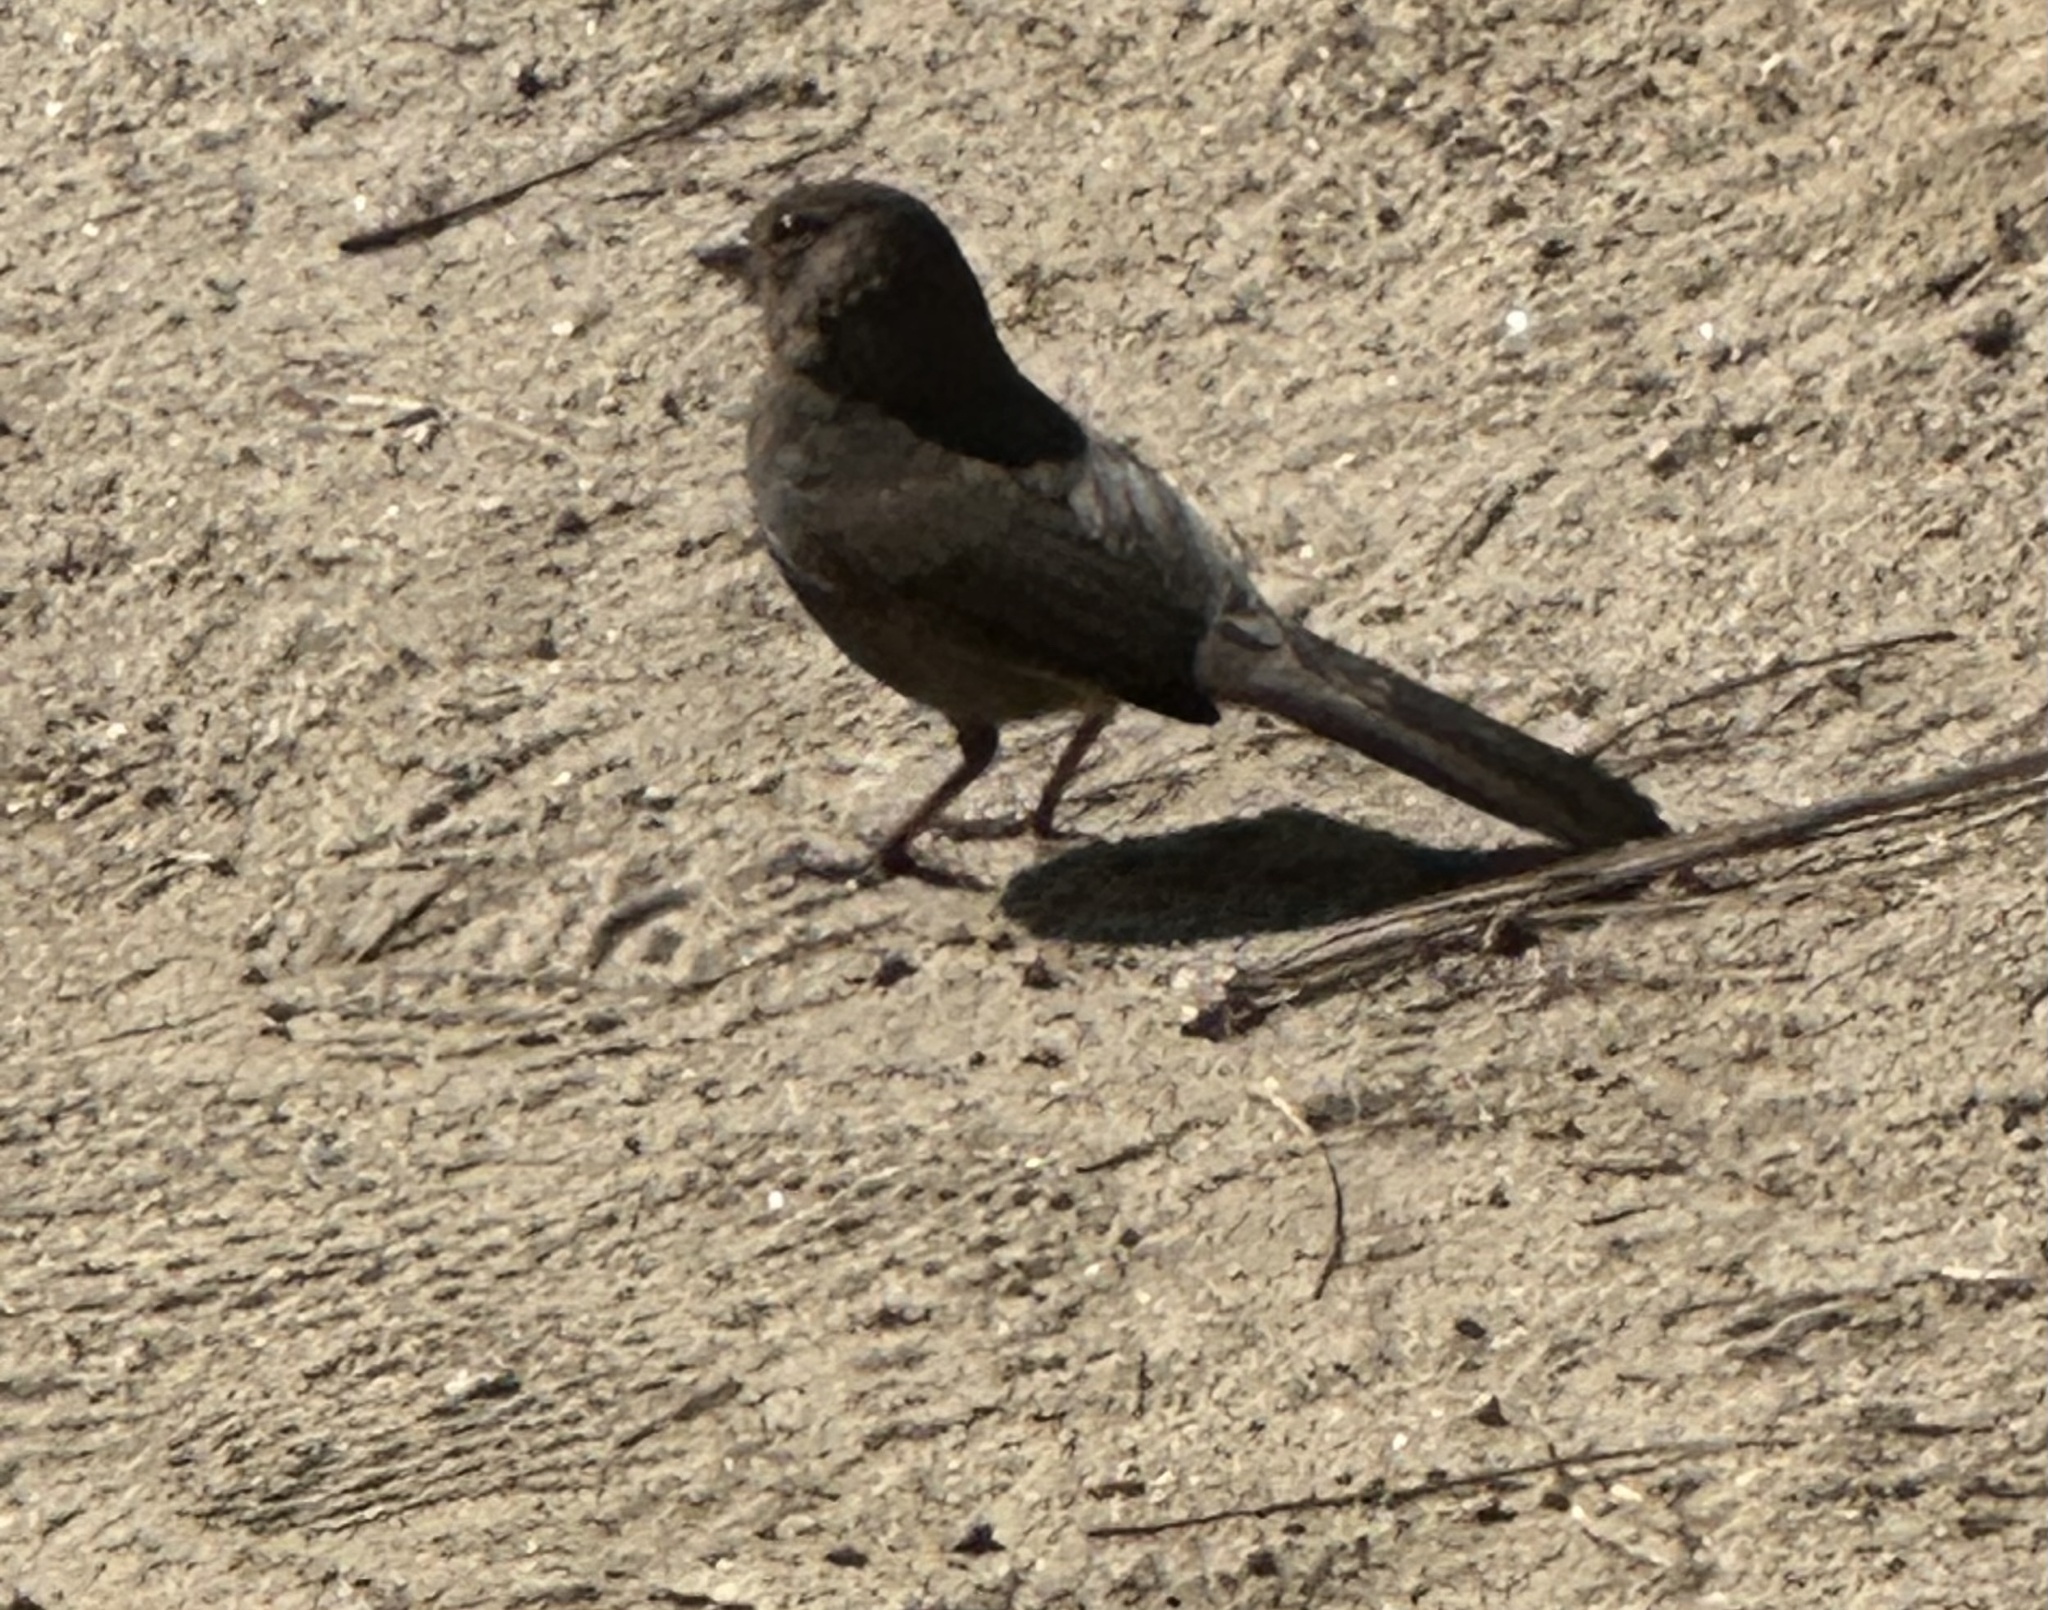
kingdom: Animalia
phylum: Chordata
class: Aves
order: Passeriformes
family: Passerellidae
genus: Melozone
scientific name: Melozone crissalis
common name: California towhee
